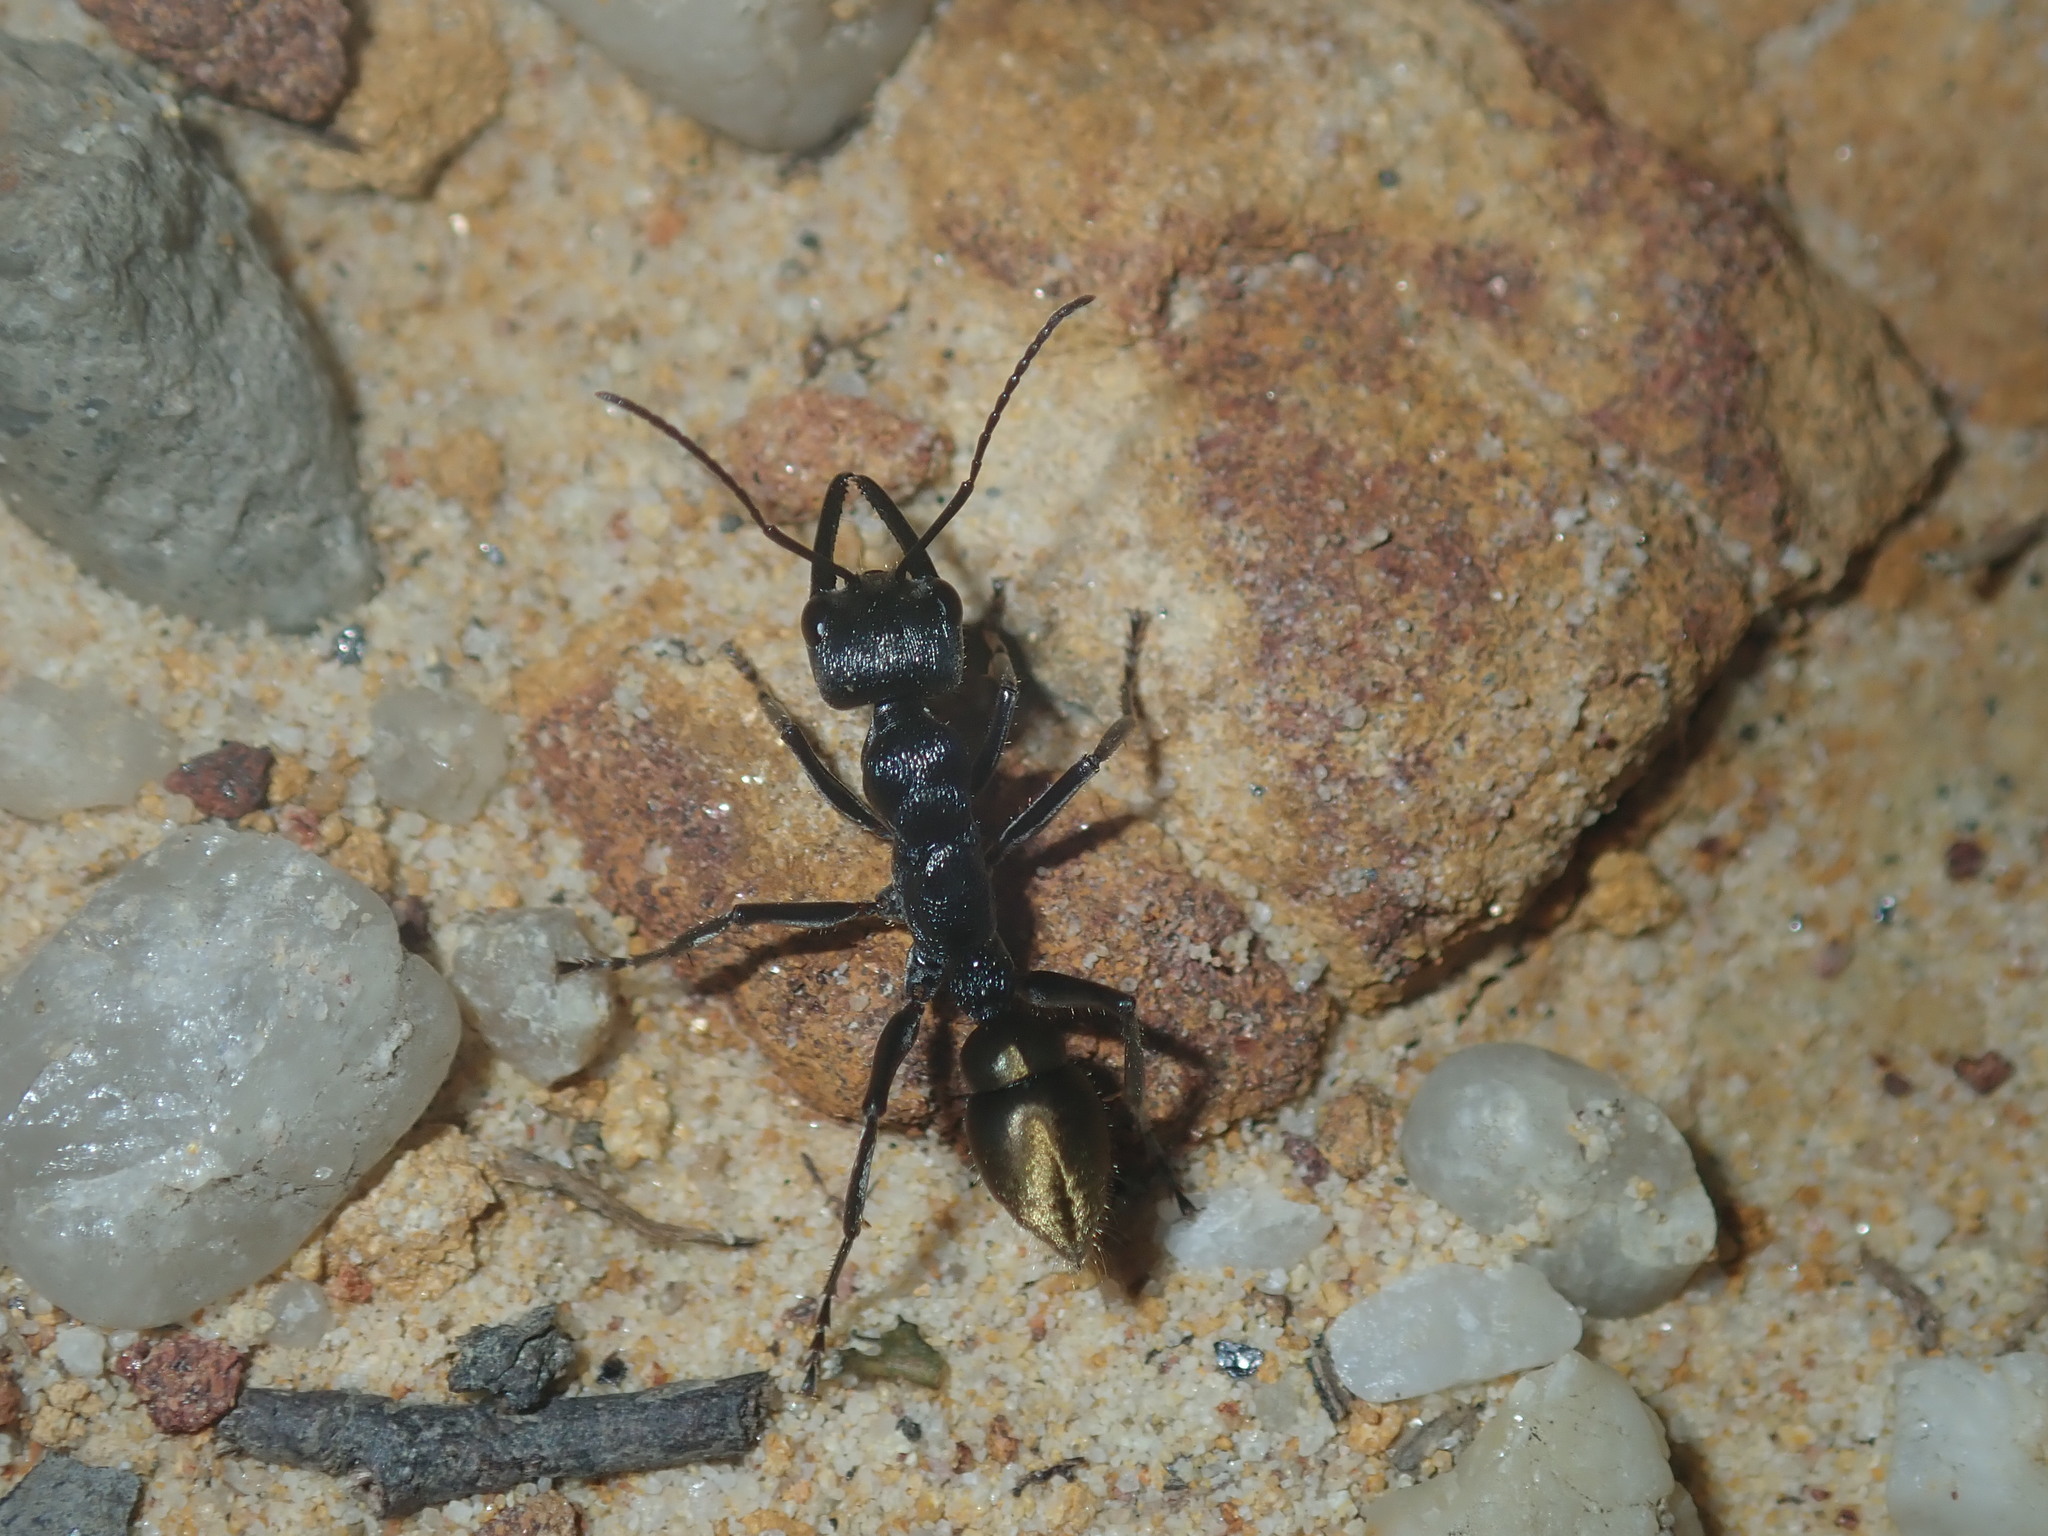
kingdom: Animalia
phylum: Arthropoda
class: Insecta
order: Hymenoptera
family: Formicidae
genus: Myrmecia
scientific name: Myrmecia piliventris
